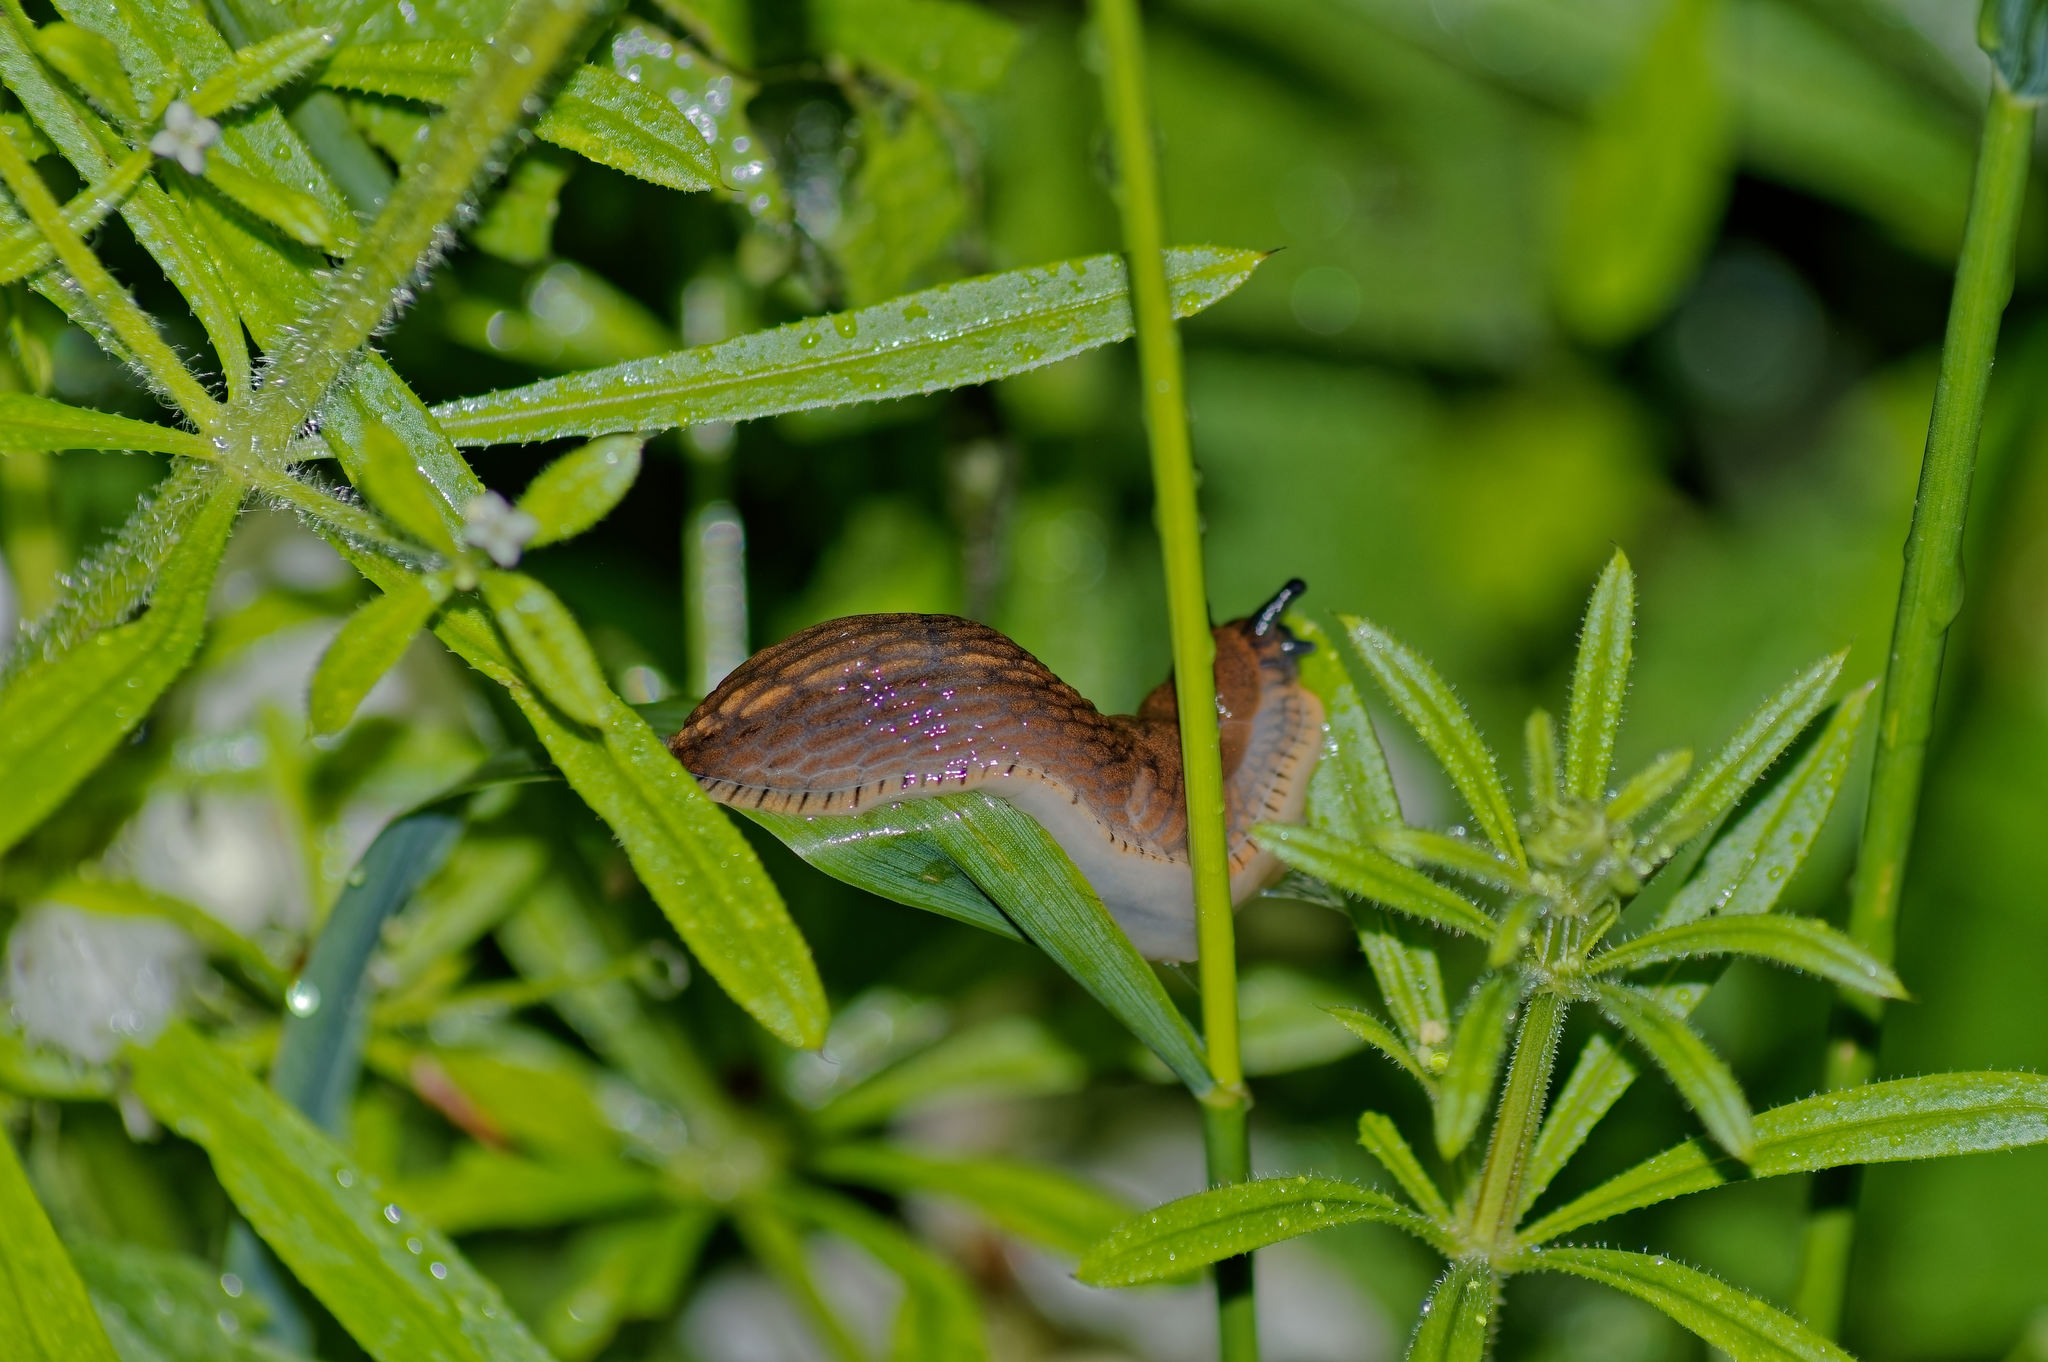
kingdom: Animalia
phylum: Mollusca
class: Gastropoda
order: Stylommatophora
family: Arionidae
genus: Arion
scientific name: Arion vulgaris
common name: Lusitanian slug
